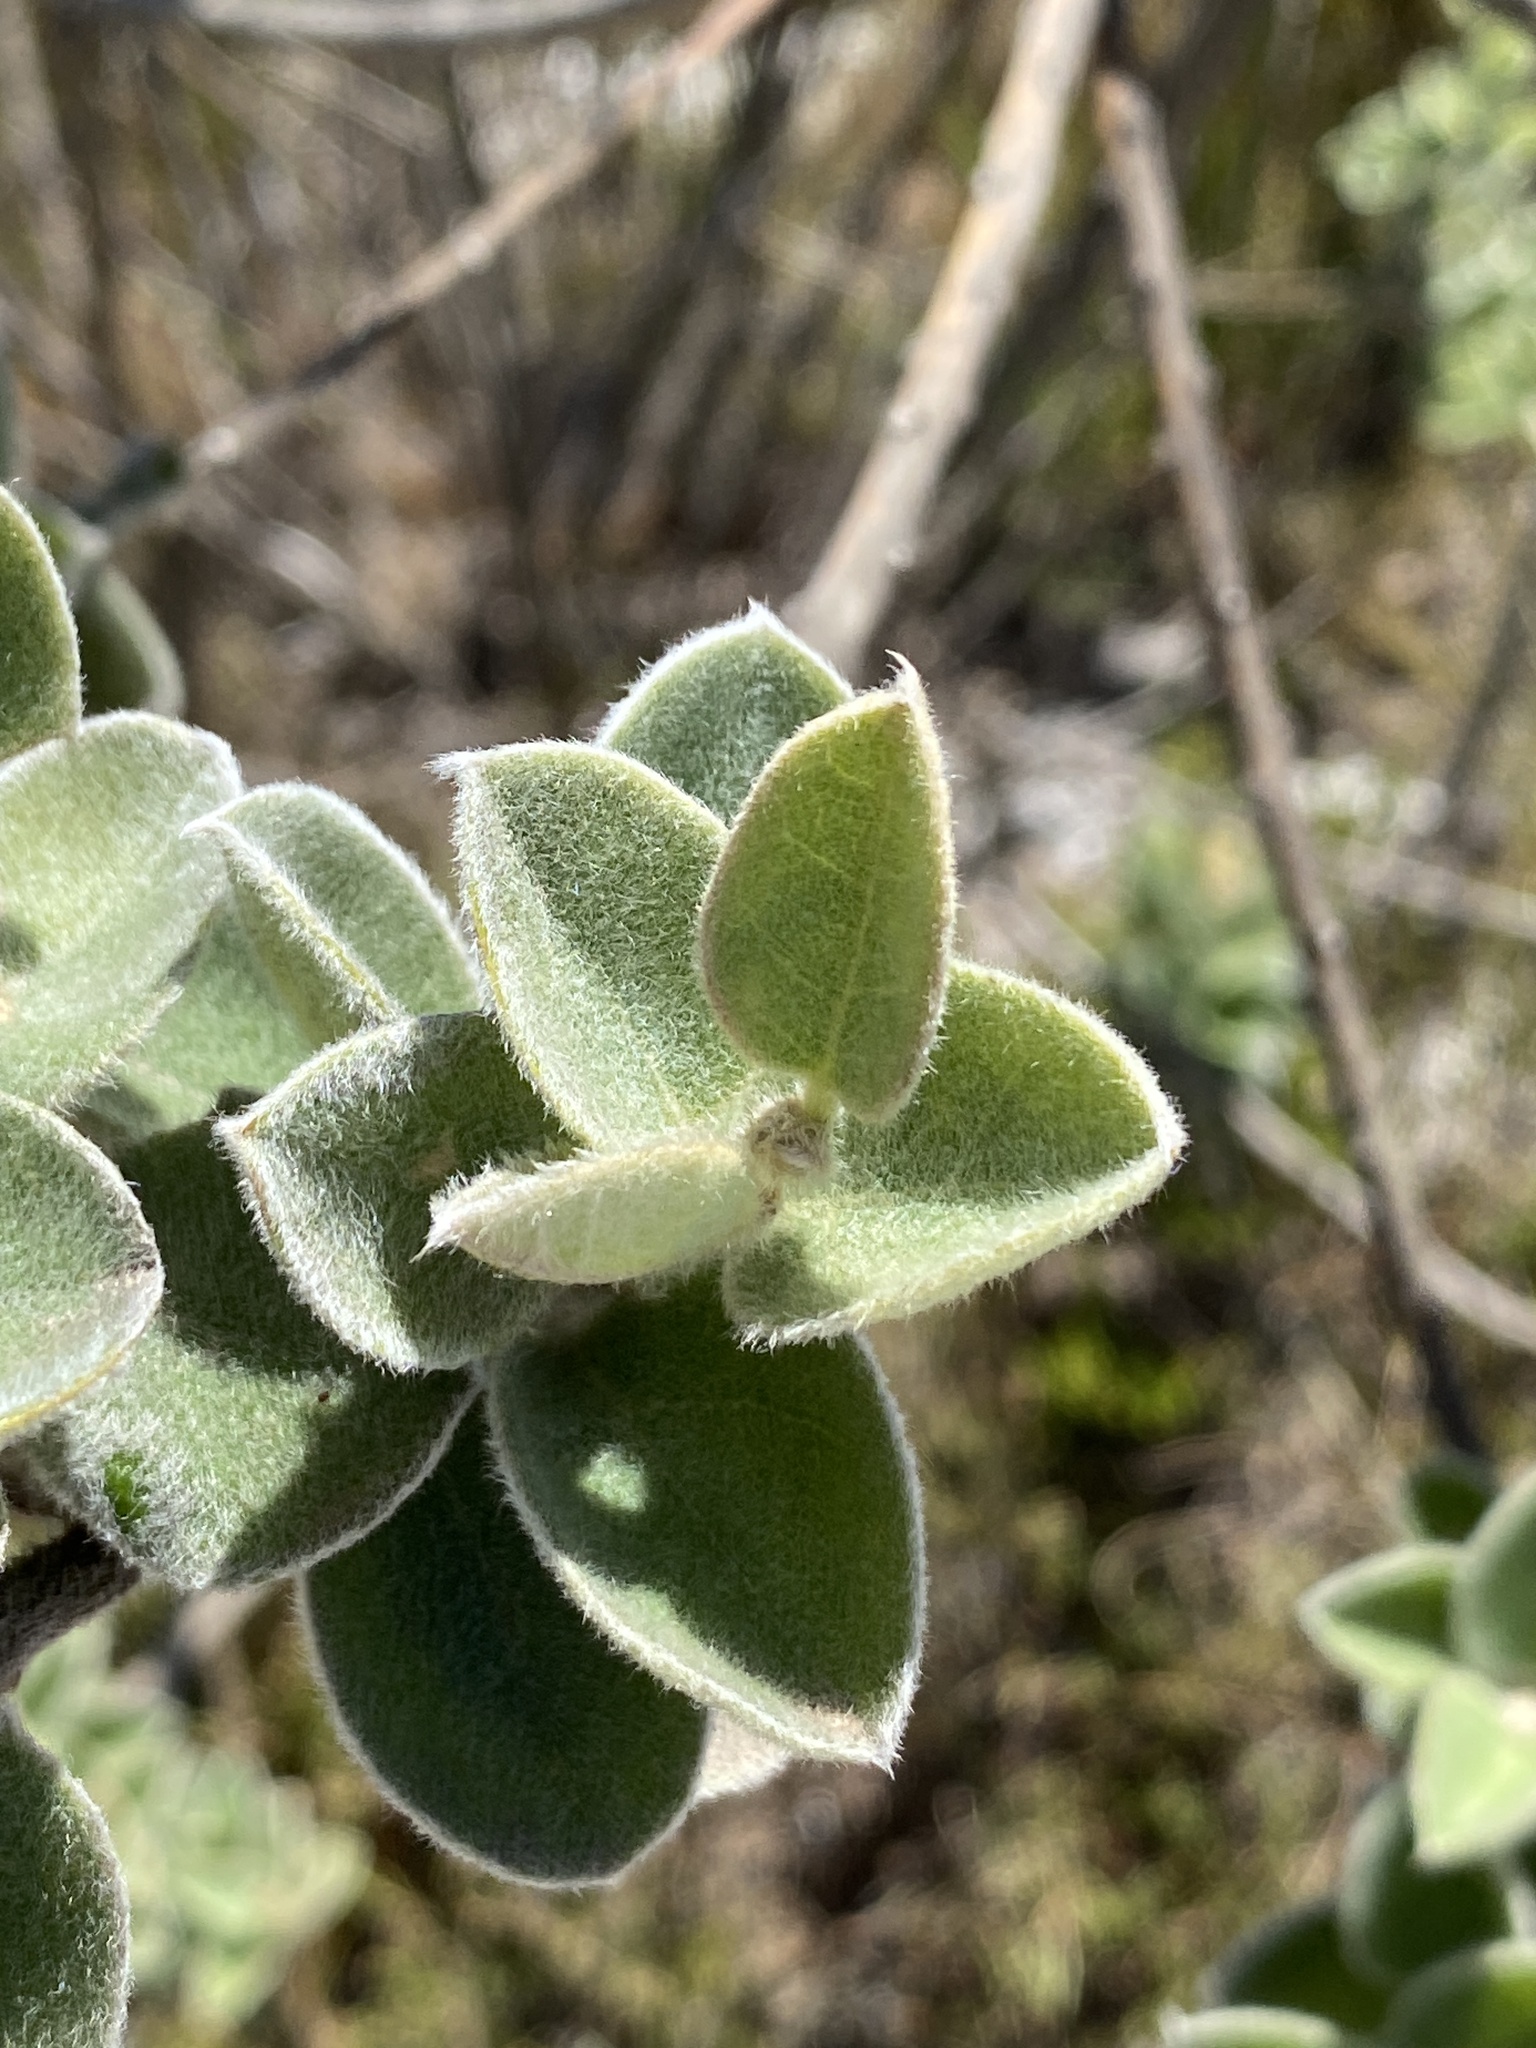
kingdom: Plantae
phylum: Tracheophyta
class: Magnoliopsida
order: Fabales
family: Fabaceae
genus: Podalyria
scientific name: Podalyria cordata
